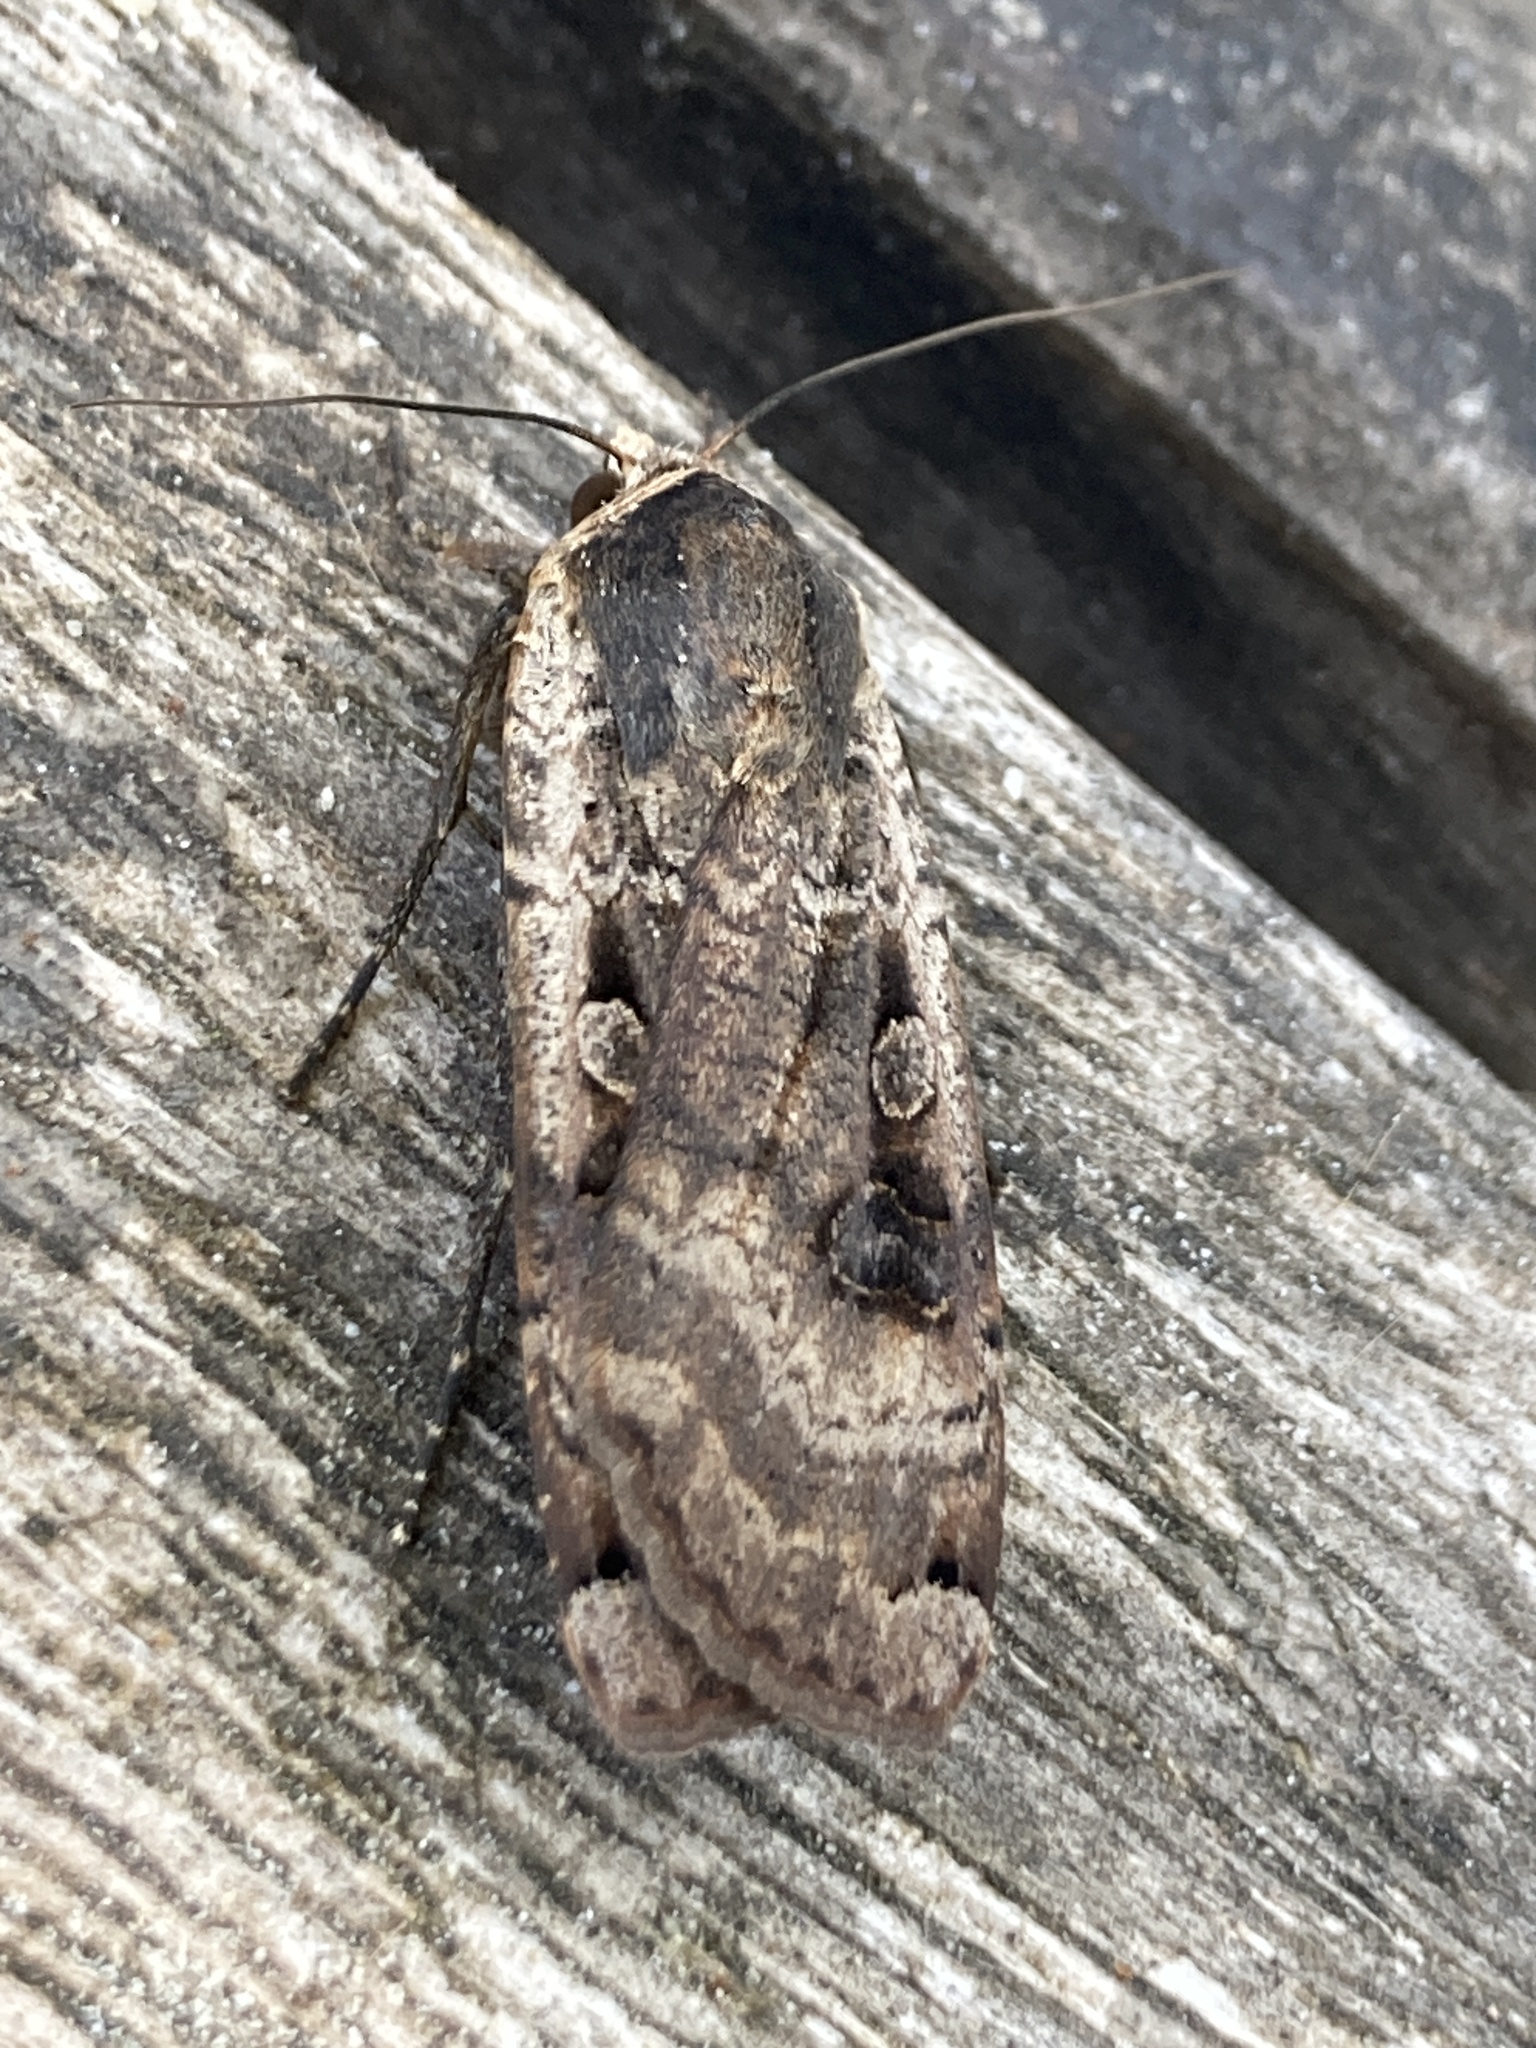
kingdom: Animalia
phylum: Arthropoda
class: Insecta
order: Lepidoptera
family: Noctuidae
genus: Noctua
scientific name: Noctua pronuba
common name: Large yellow underwing
